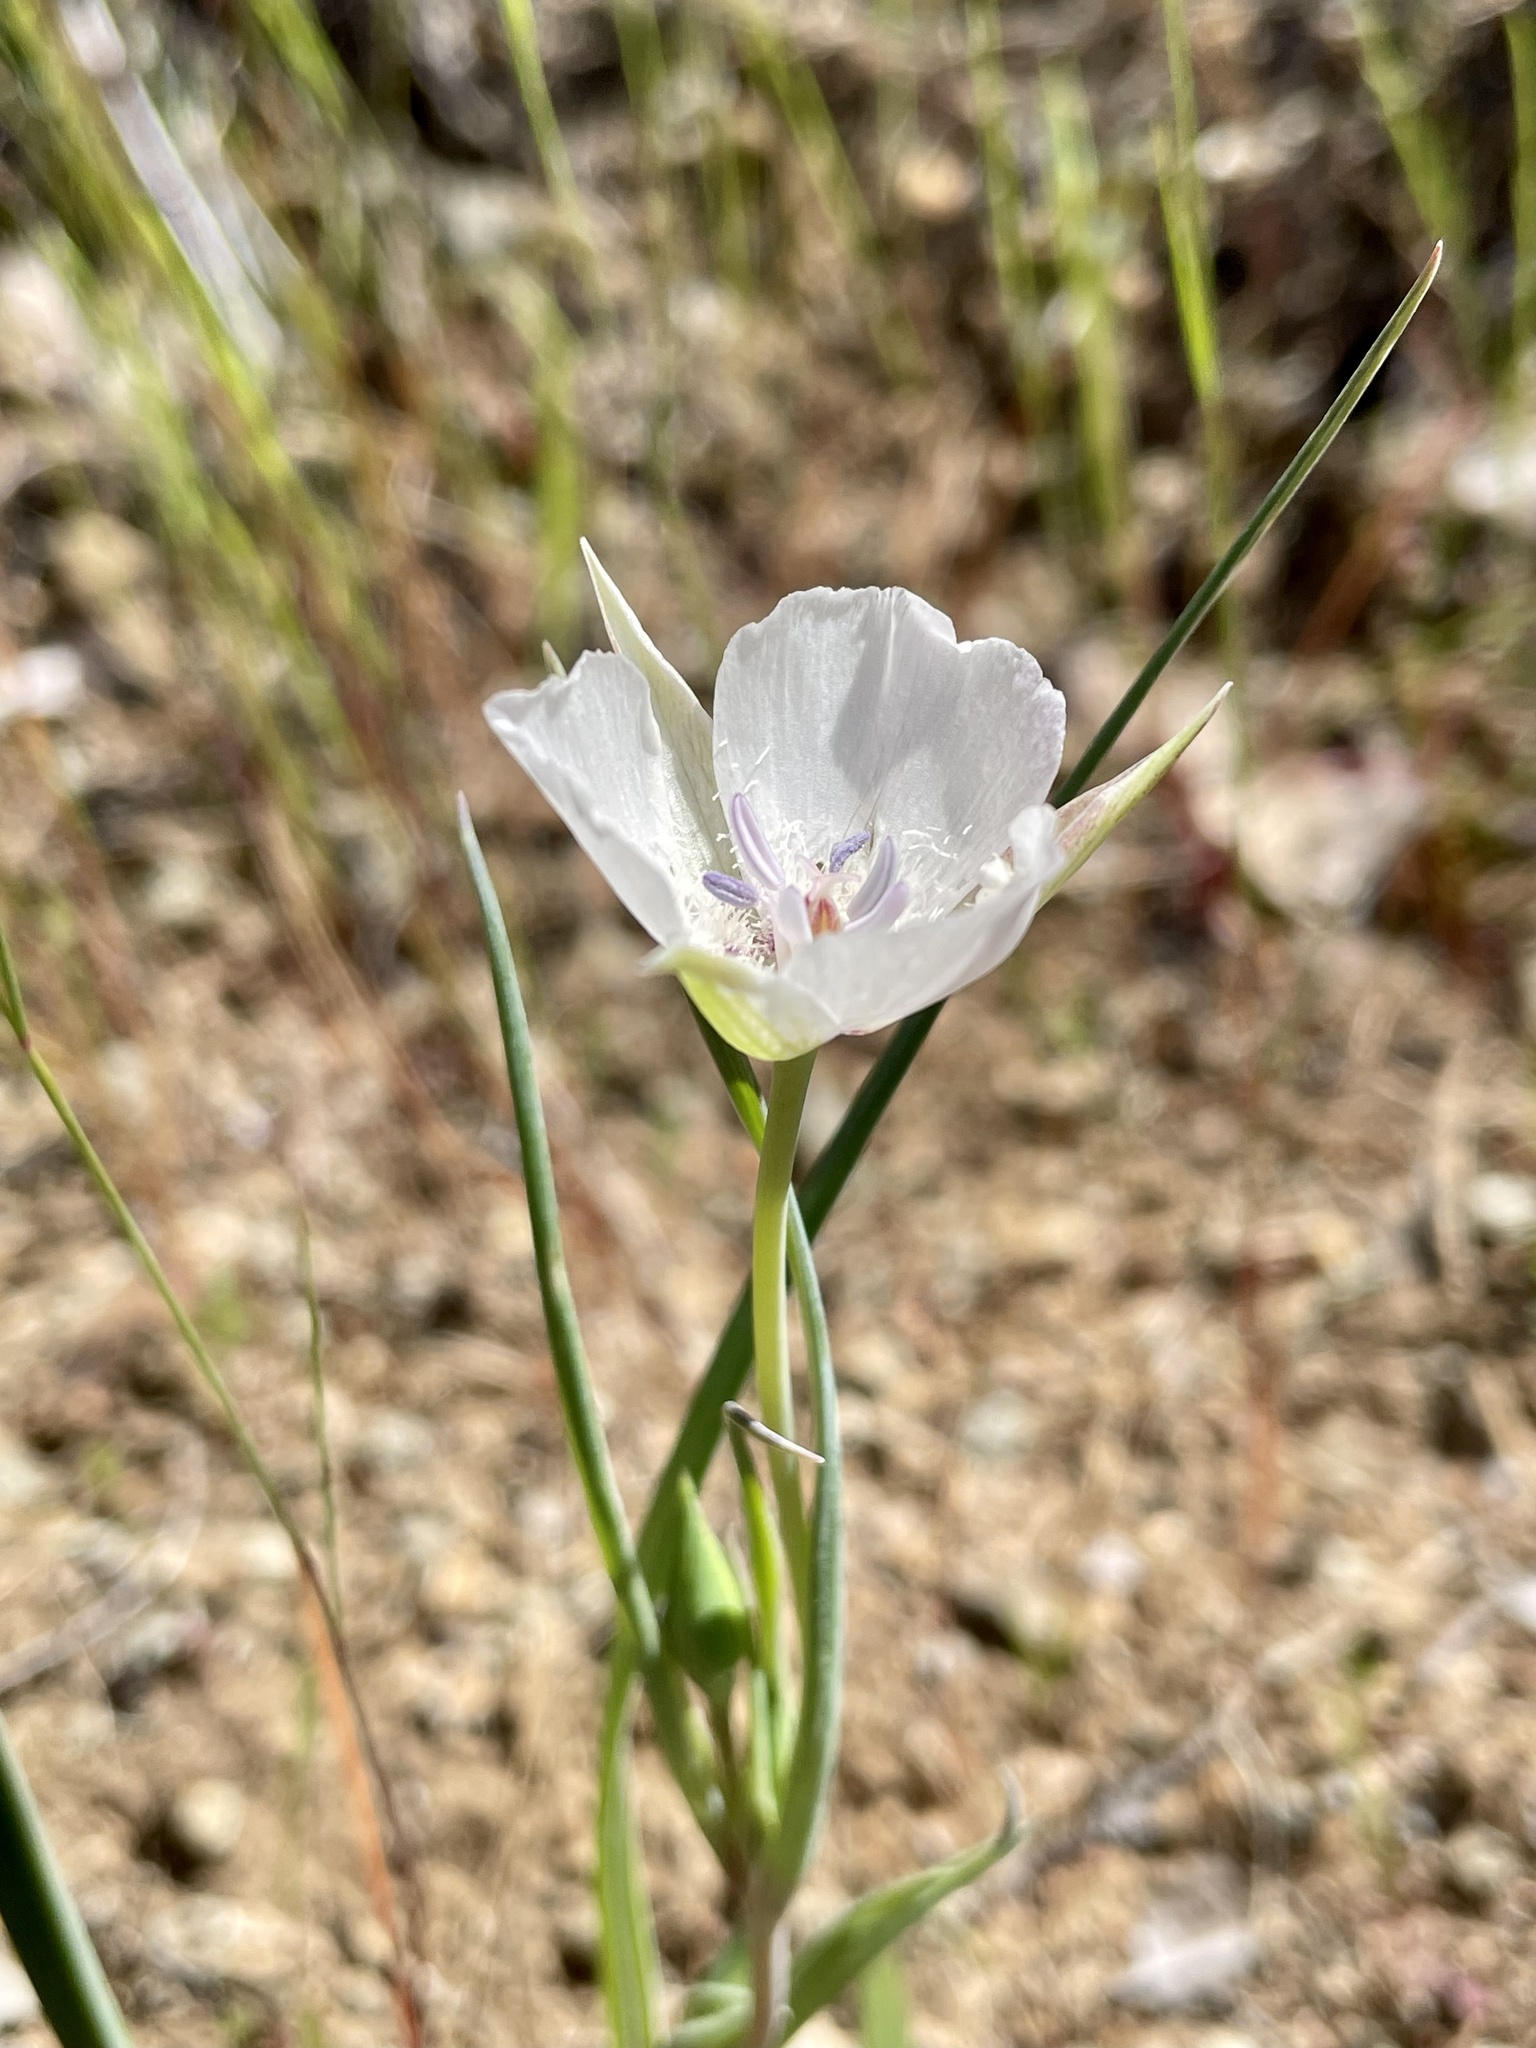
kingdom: Plantae
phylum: Tracheophyta
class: Liliopsida
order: Liliales
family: Liliaceae
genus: Calochortus
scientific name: Calochortus umbellatus
